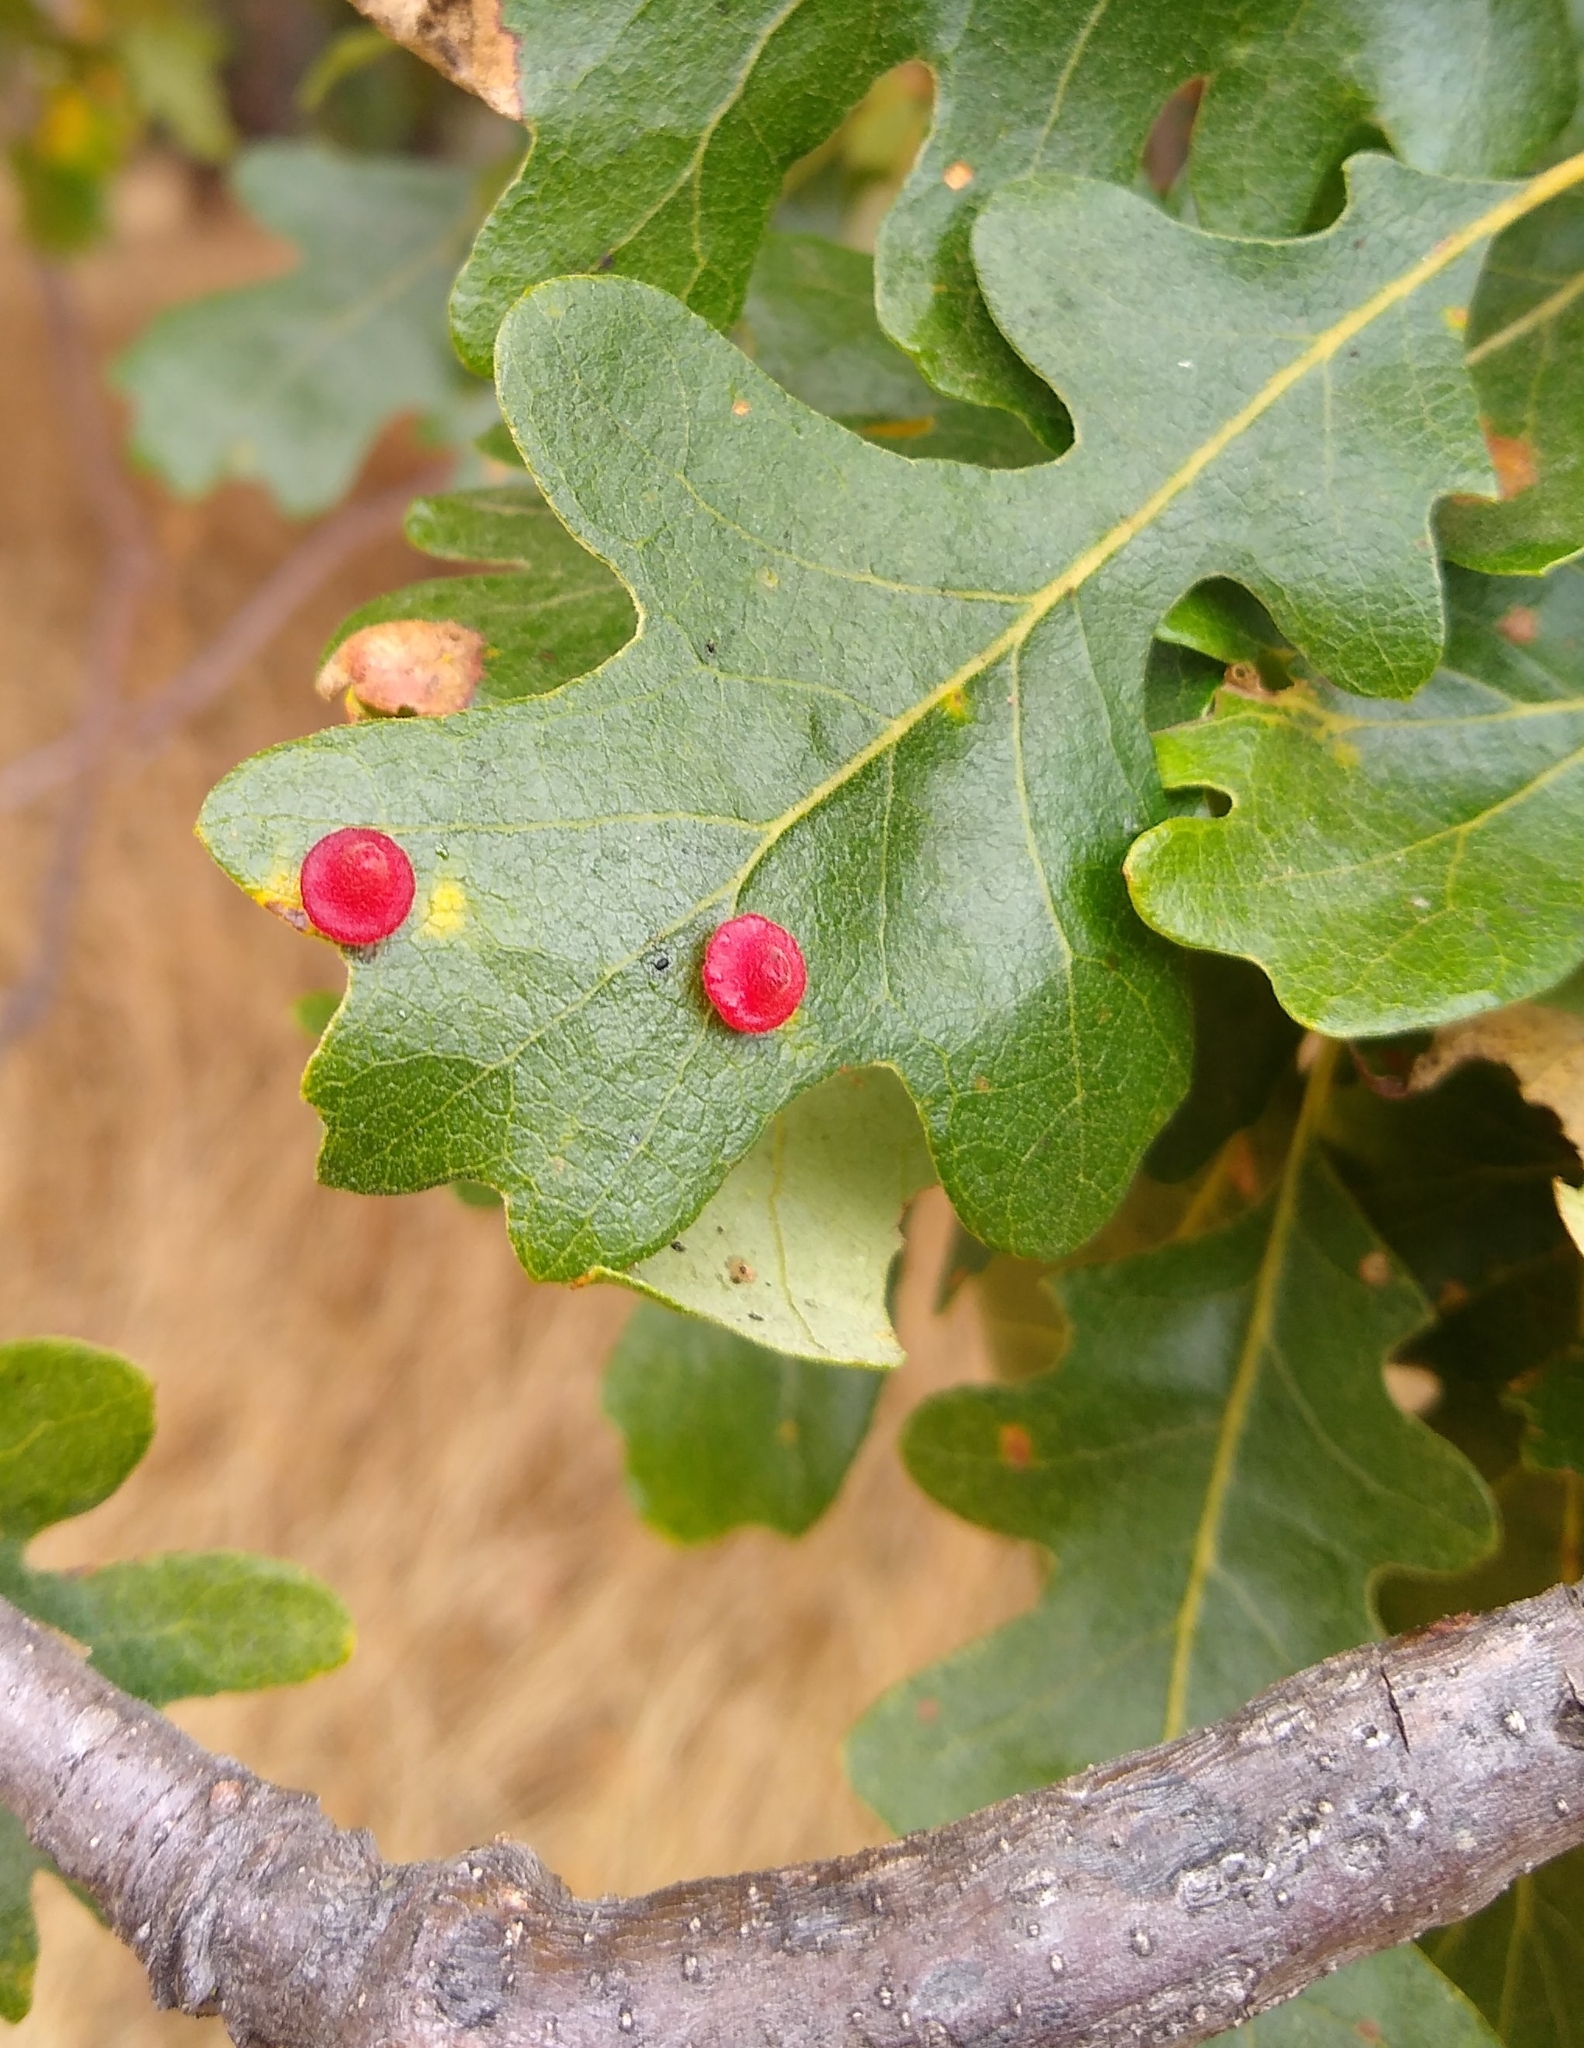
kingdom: Animalia
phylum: Arthropoda
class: Insecta
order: Hymenoptera
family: Cynipidae
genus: Andricus
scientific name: Andricus
